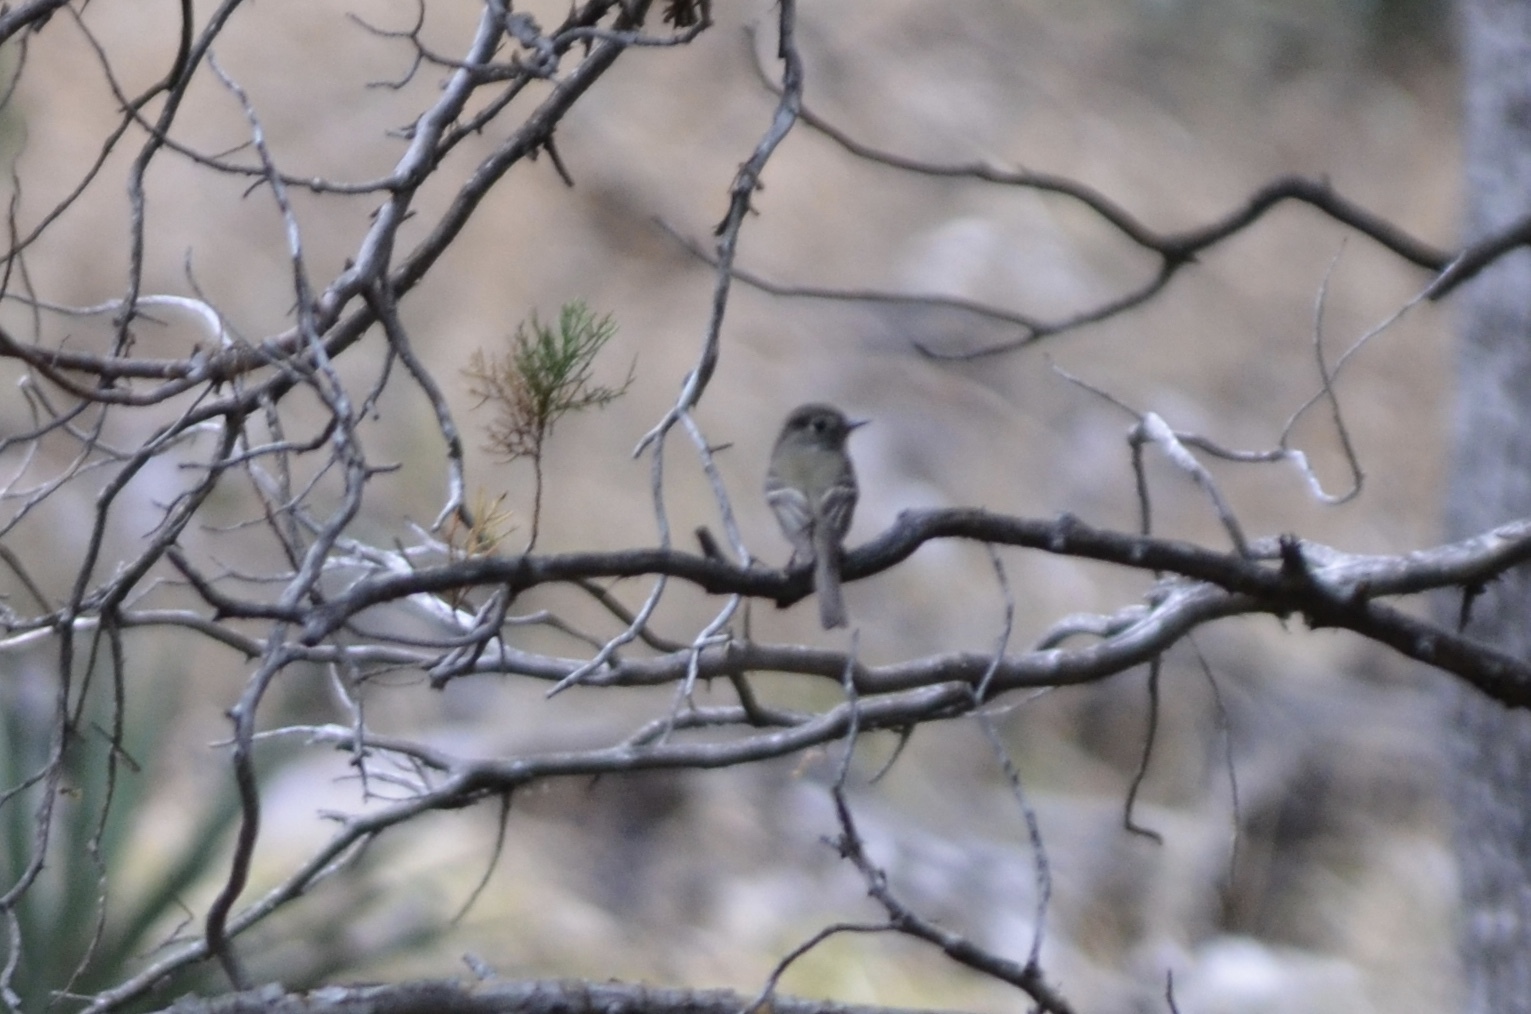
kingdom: Animalia
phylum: Chordata
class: Aves
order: Passeriformes
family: Tyrannidae
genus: Empidonax
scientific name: Empidonax hammondii
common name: Hammond's flycatcher
